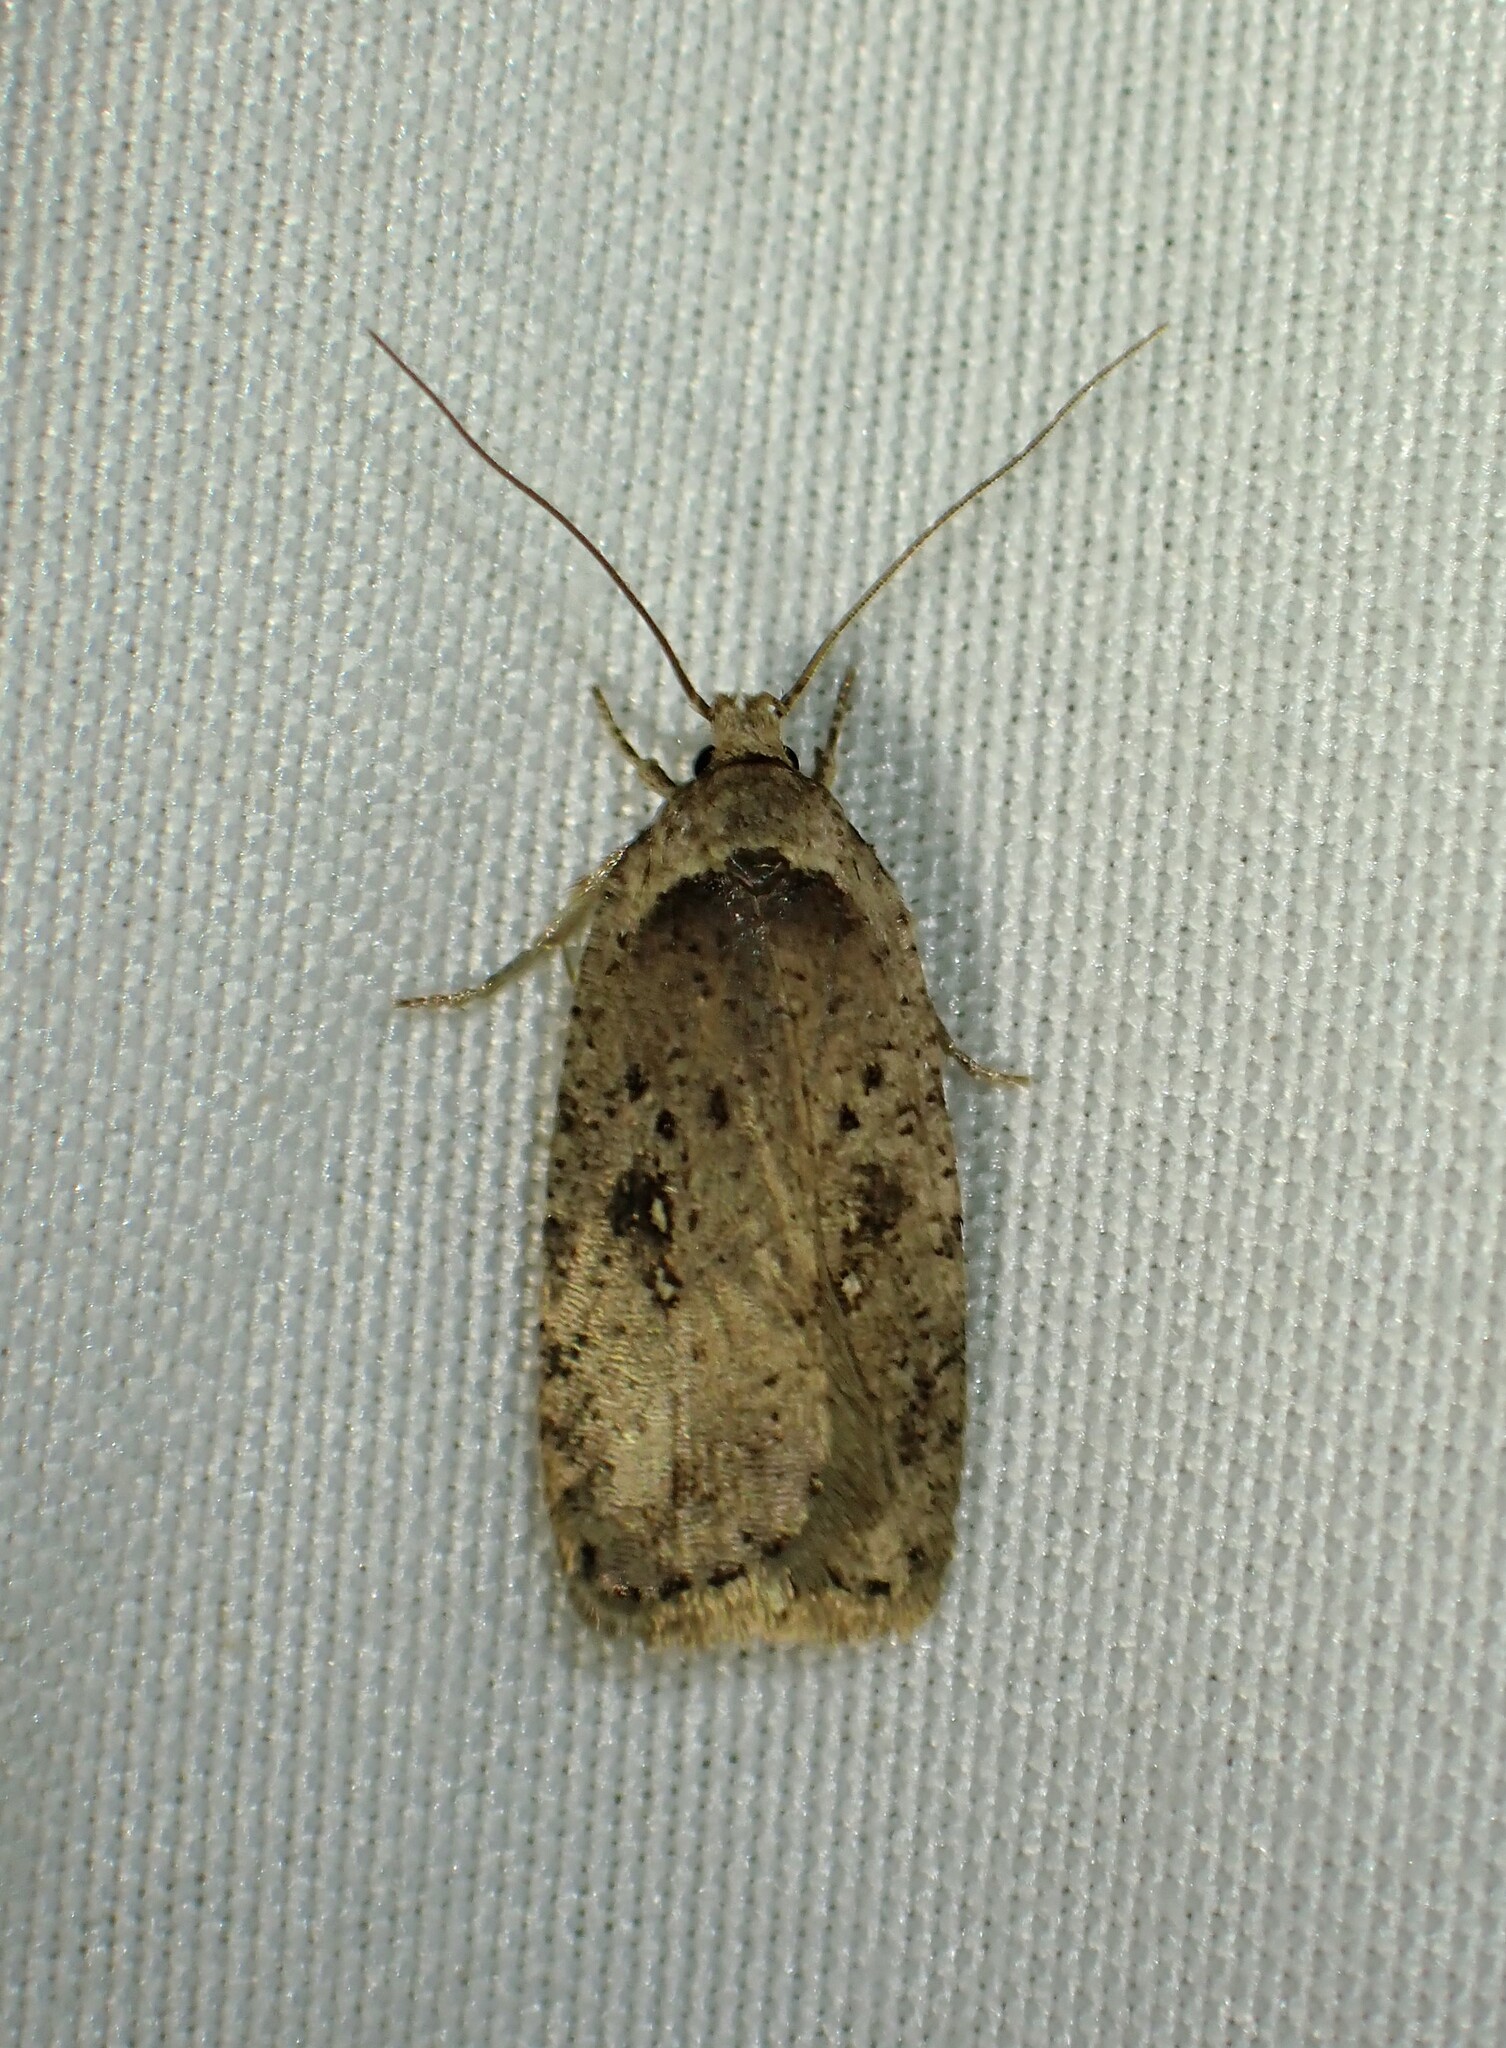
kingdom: Animalia
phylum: Arthropoda
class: Insecta
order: Lepidoptera
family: Depressariidae
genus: Agonopterix
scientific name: Agonopterix argillacea
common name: Clay-colored agonopterix moth
